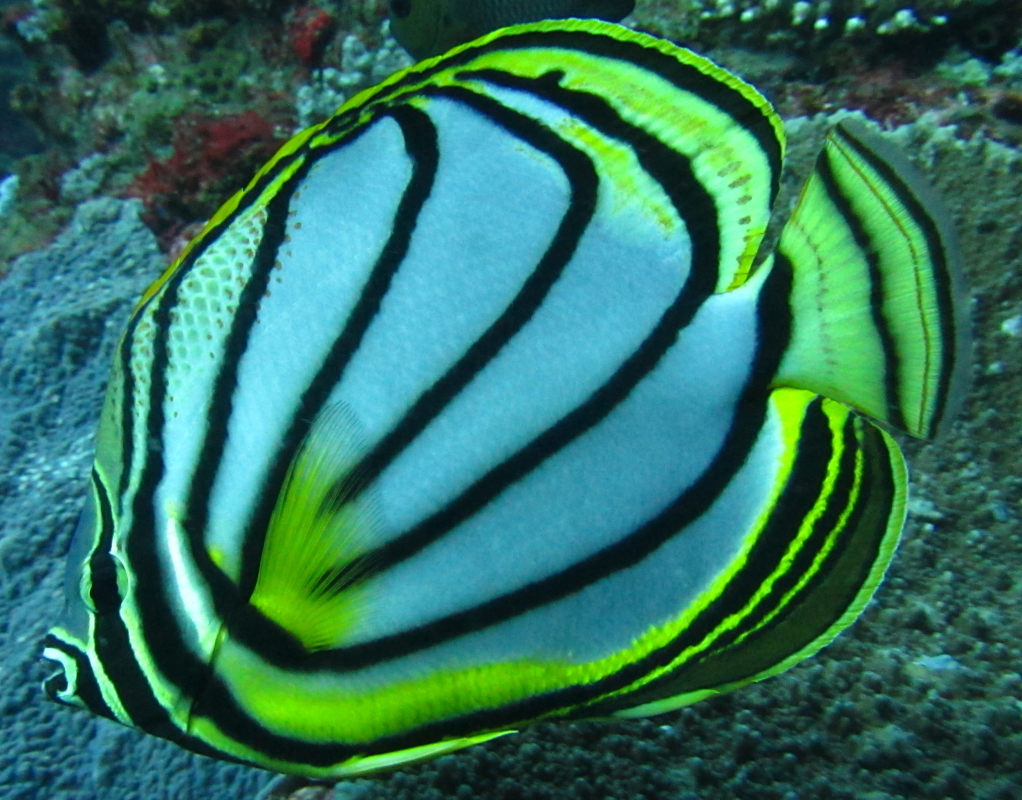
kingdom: Animalia
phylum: Chordata
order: Perciformes
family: Chaetodontidae
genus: Chaetodon
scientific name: Chaetodon meyeri
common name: Meyer's butterflyfish
